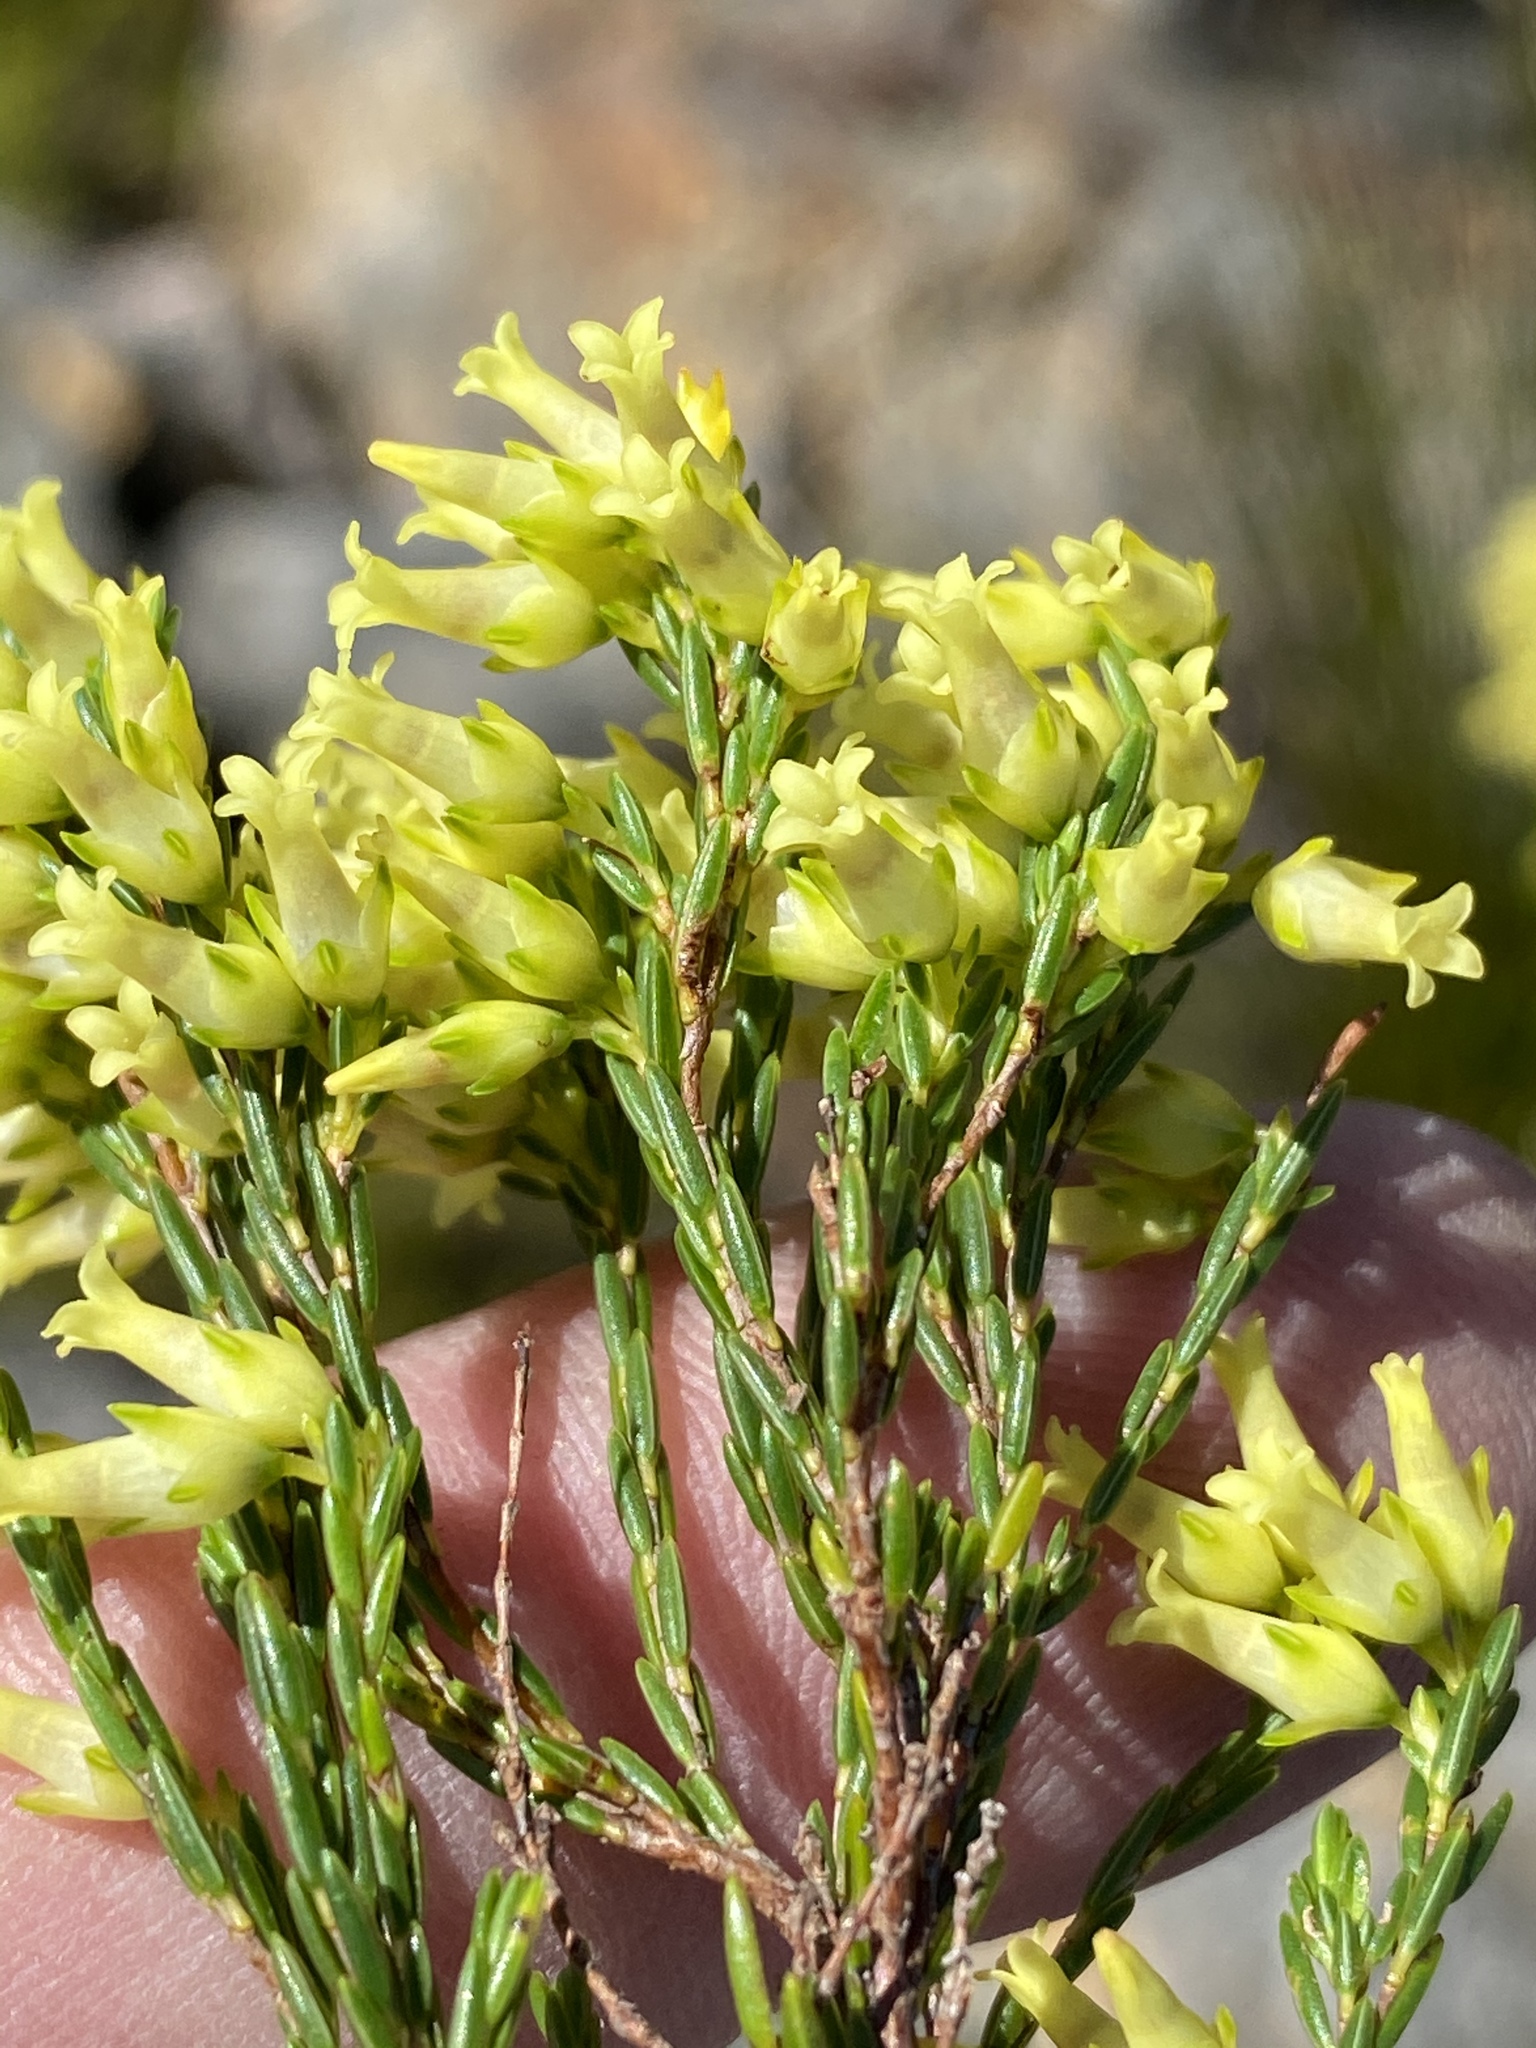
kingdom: Plantae
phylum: Tracheophyta
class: Magnoliopsida
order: Ericales
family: Ericaceae
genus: Erica
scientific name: Erica lutea
